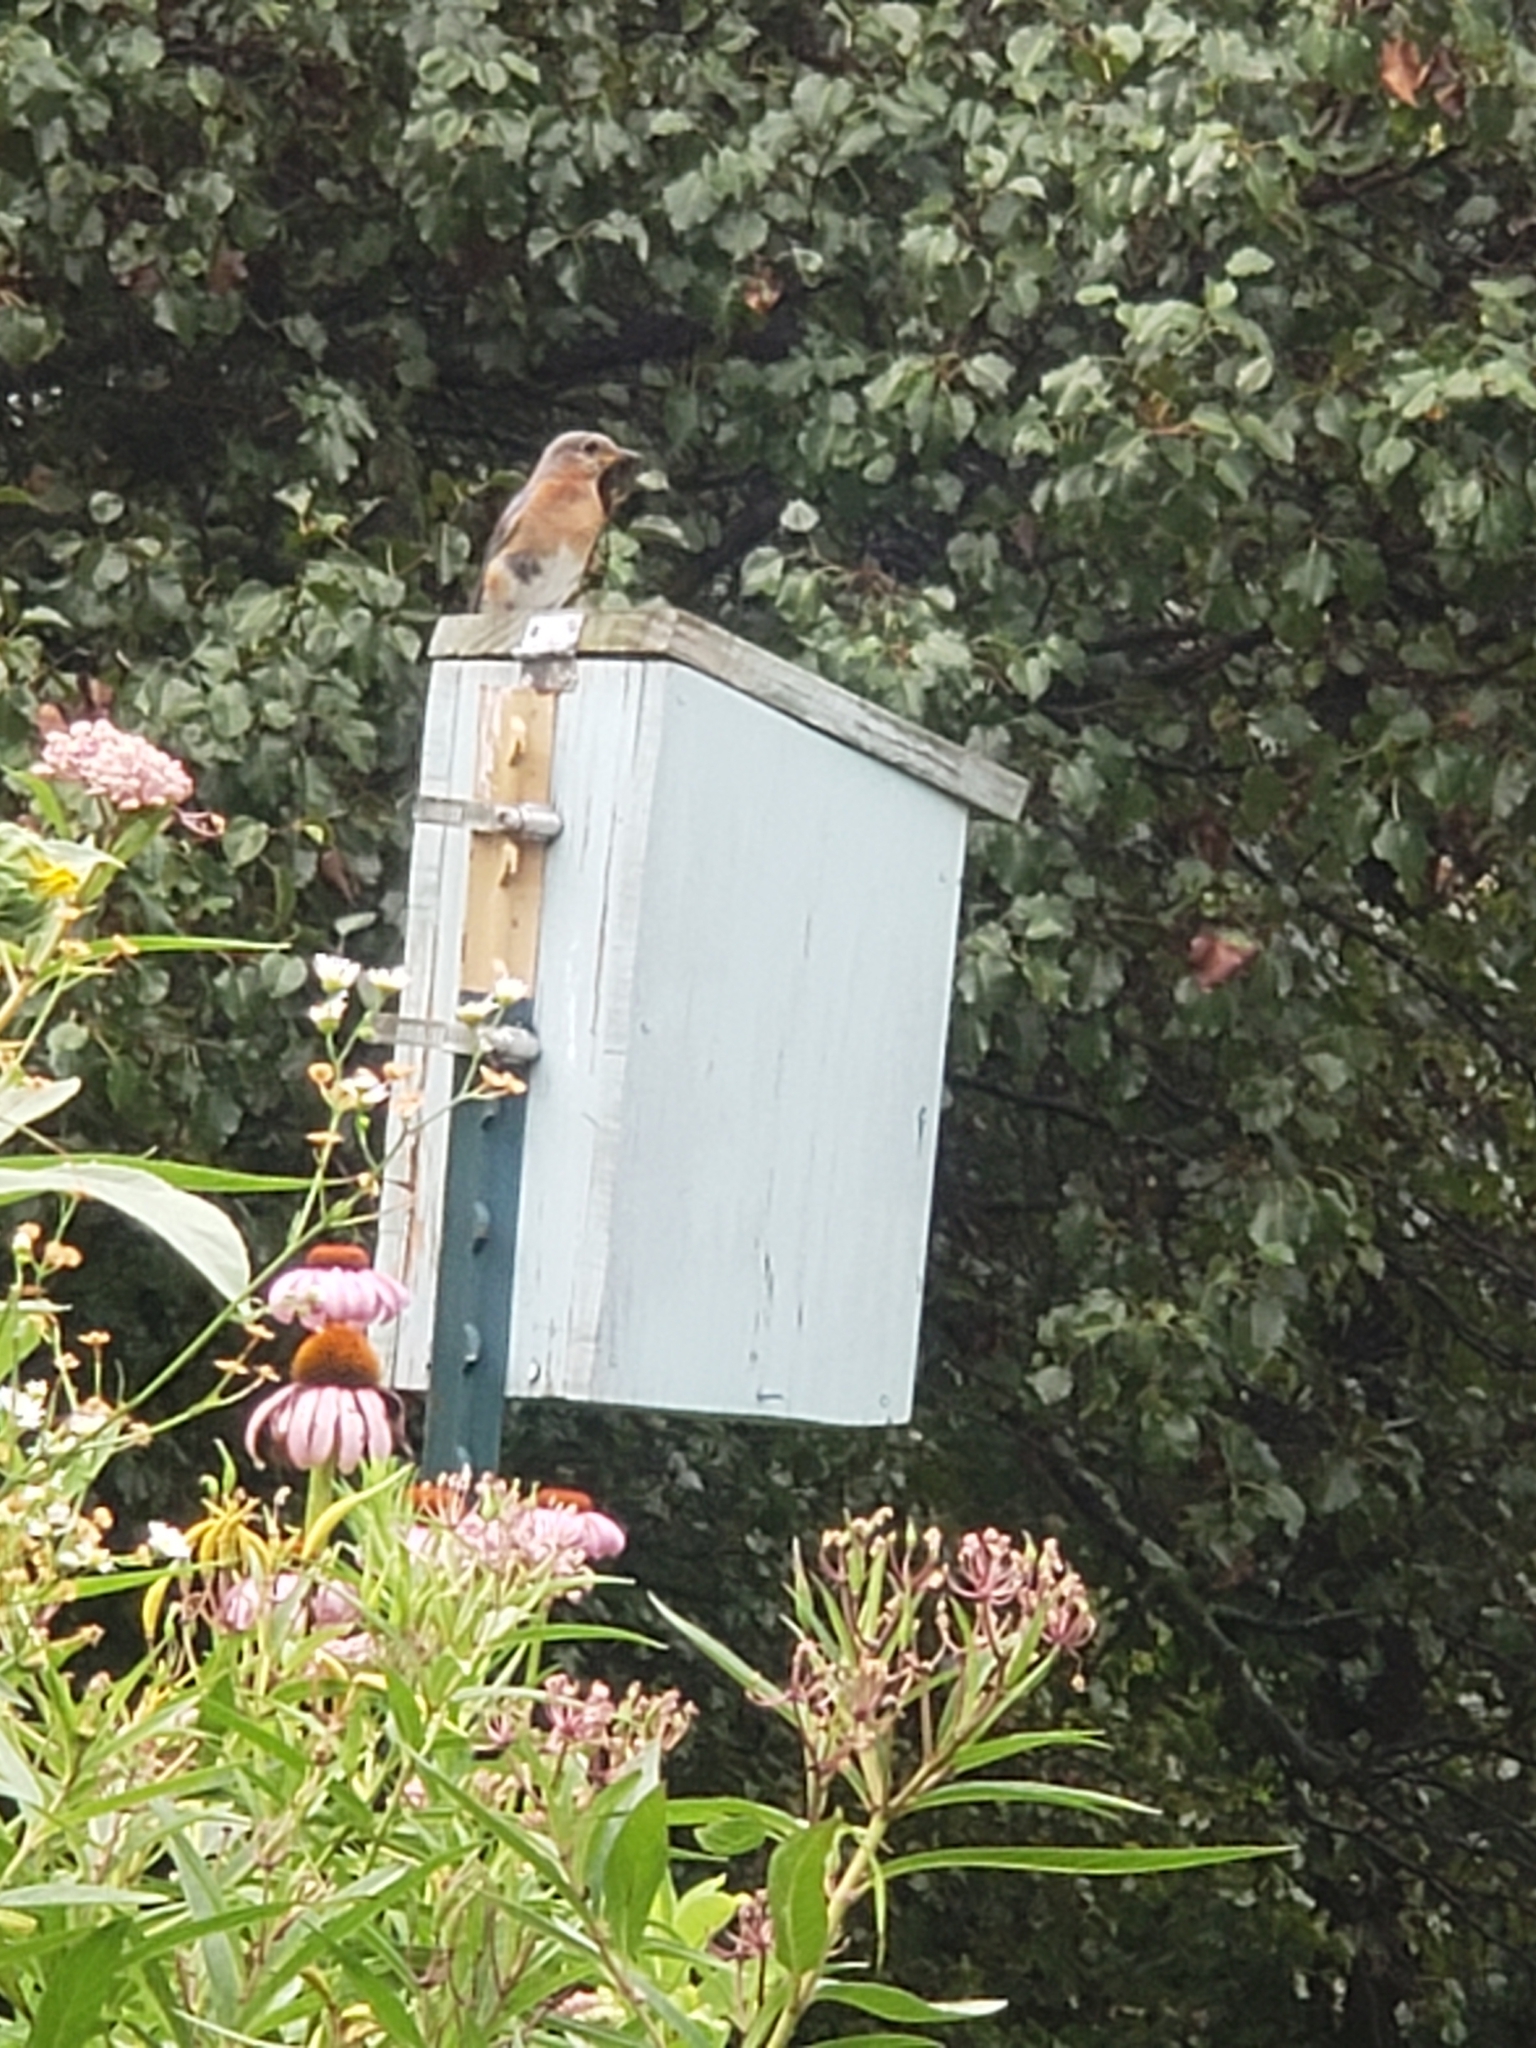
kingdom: Animalia
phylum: Chordata
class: Aves
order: Passeriformes
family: Turdidae
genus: Sialia
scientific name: Sialia sialis
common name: Eastern bluebird
